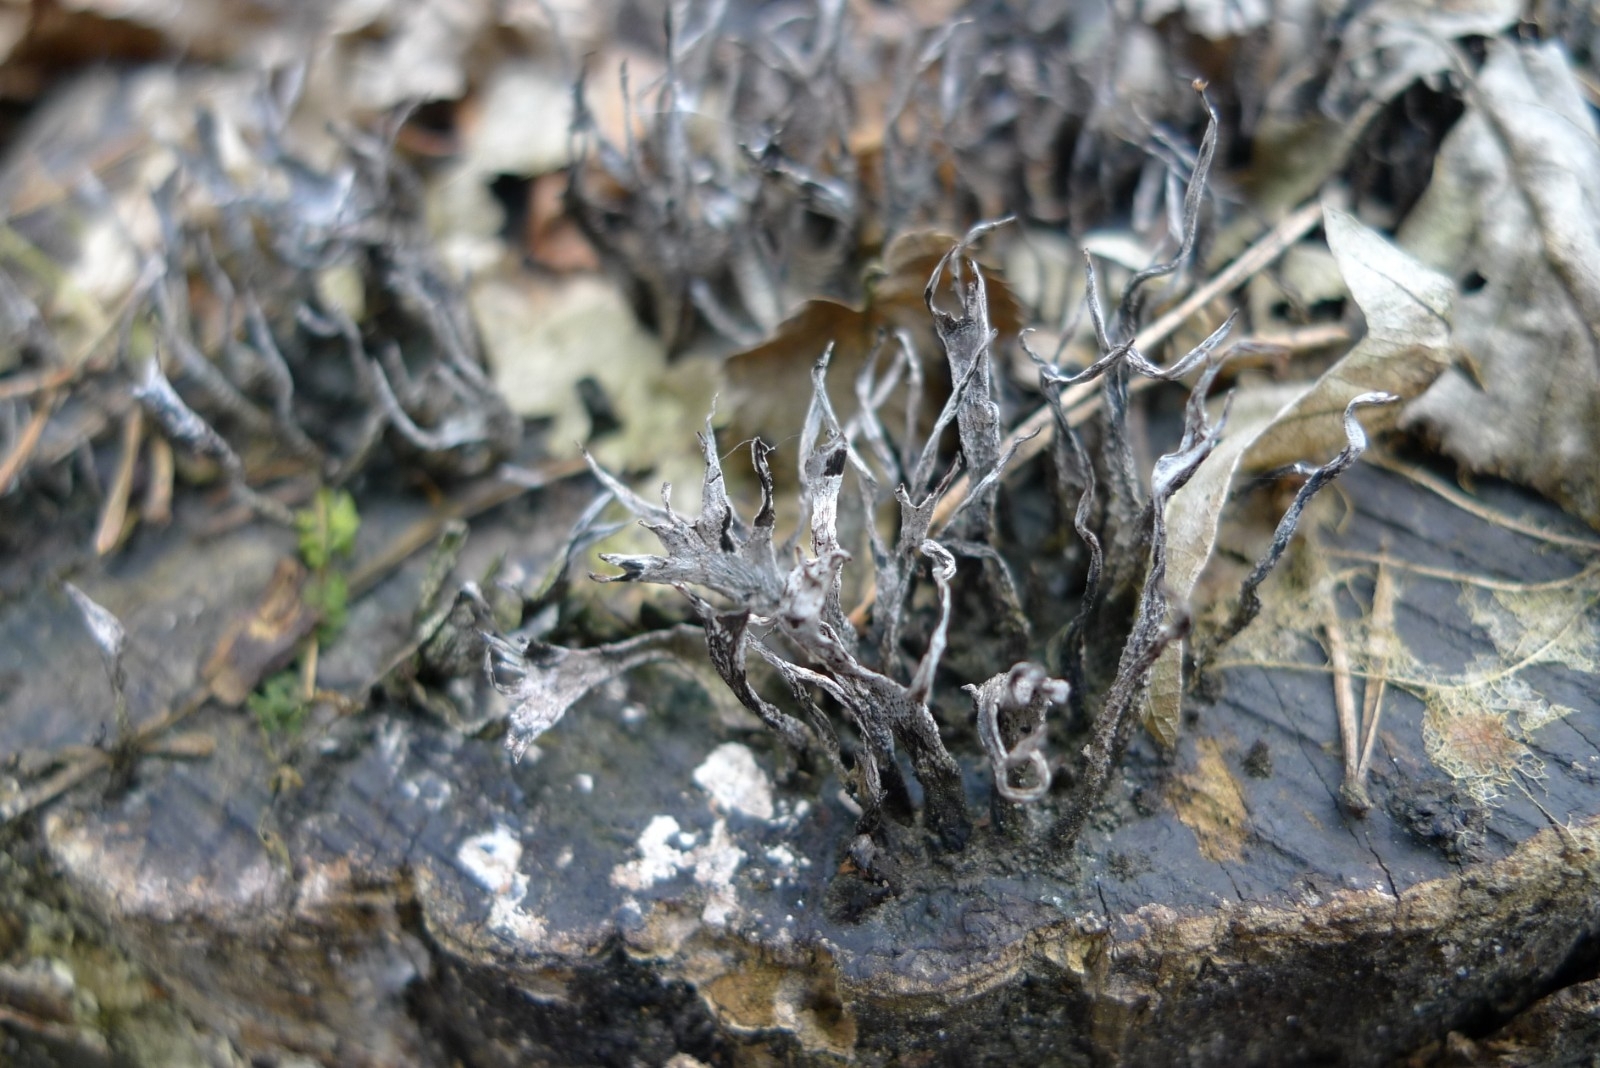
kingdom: Fungi
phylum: Ascomycota
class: Sordariomycetes
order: Xylariales
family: Xylariaceae
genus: Xylaria
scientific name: Xylaria hypoxylon
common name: Candle-snuff fungus
